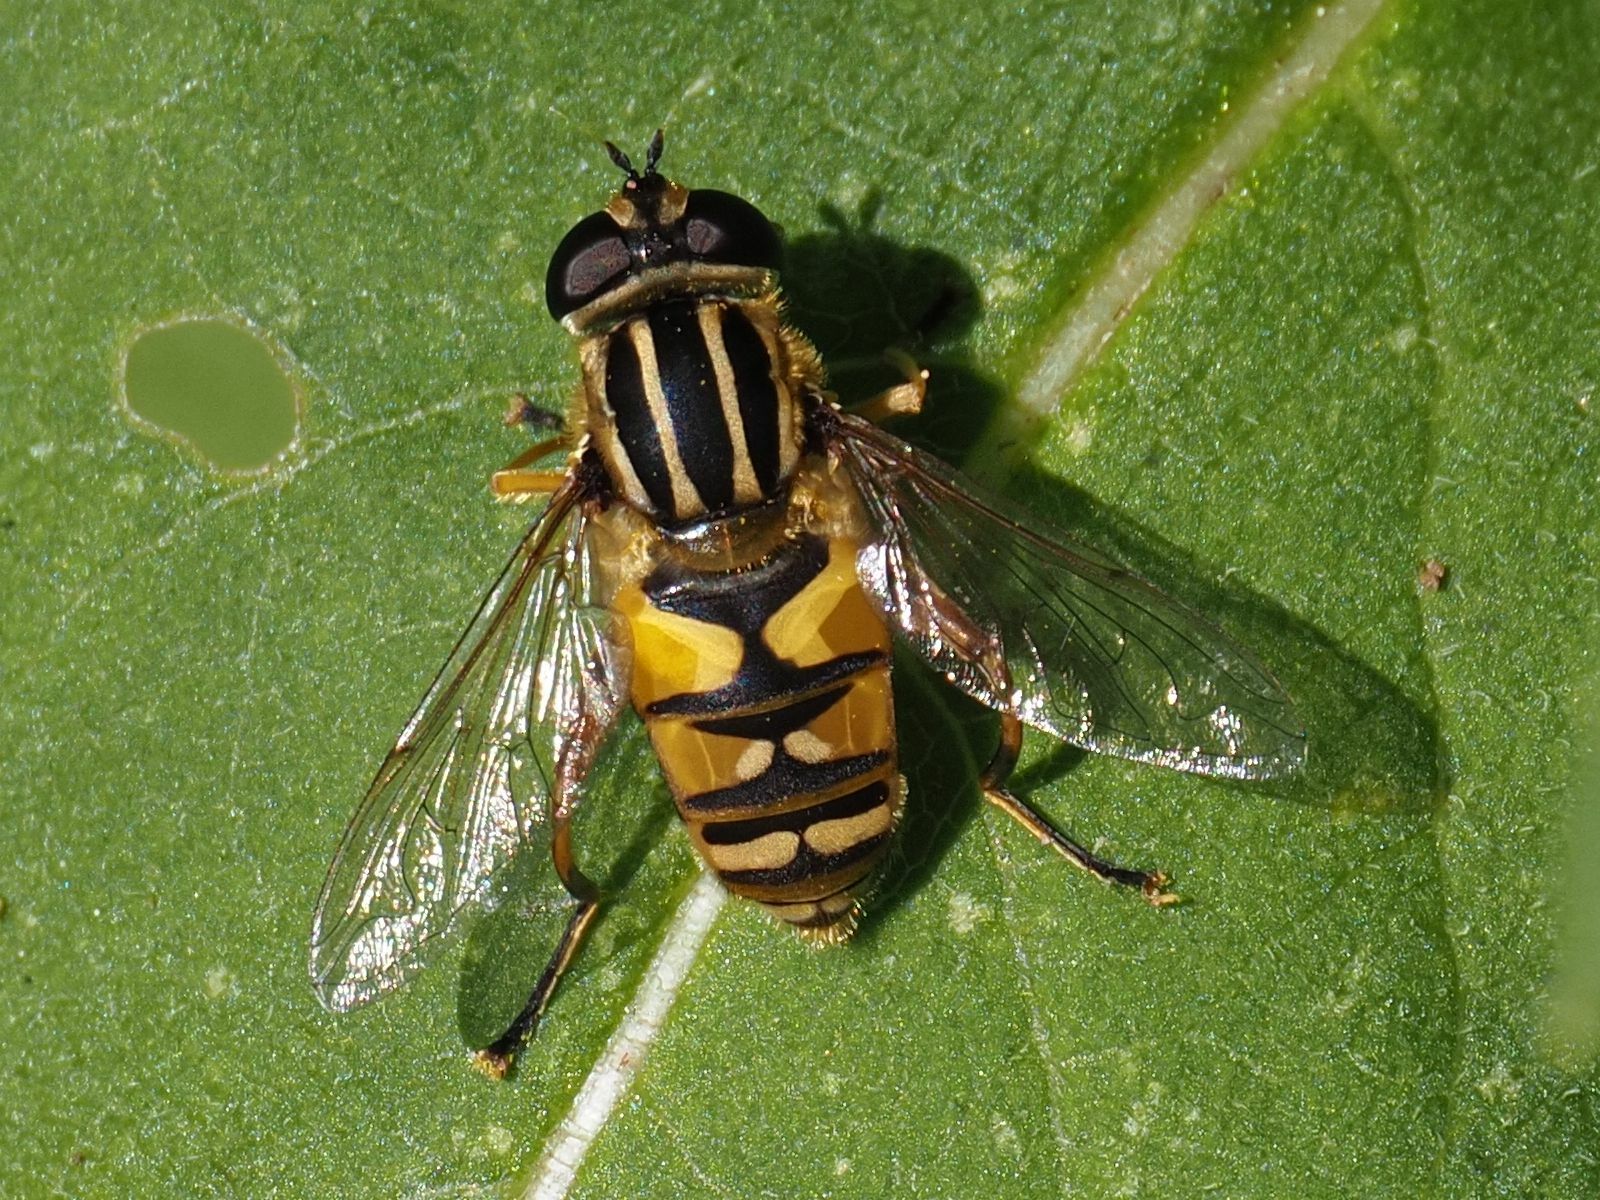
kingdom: Animalia
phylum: Arthropoda
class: Insecta
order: Diptera
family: Syrphidae
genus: Helophilus
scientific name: Helophilus pendulus
